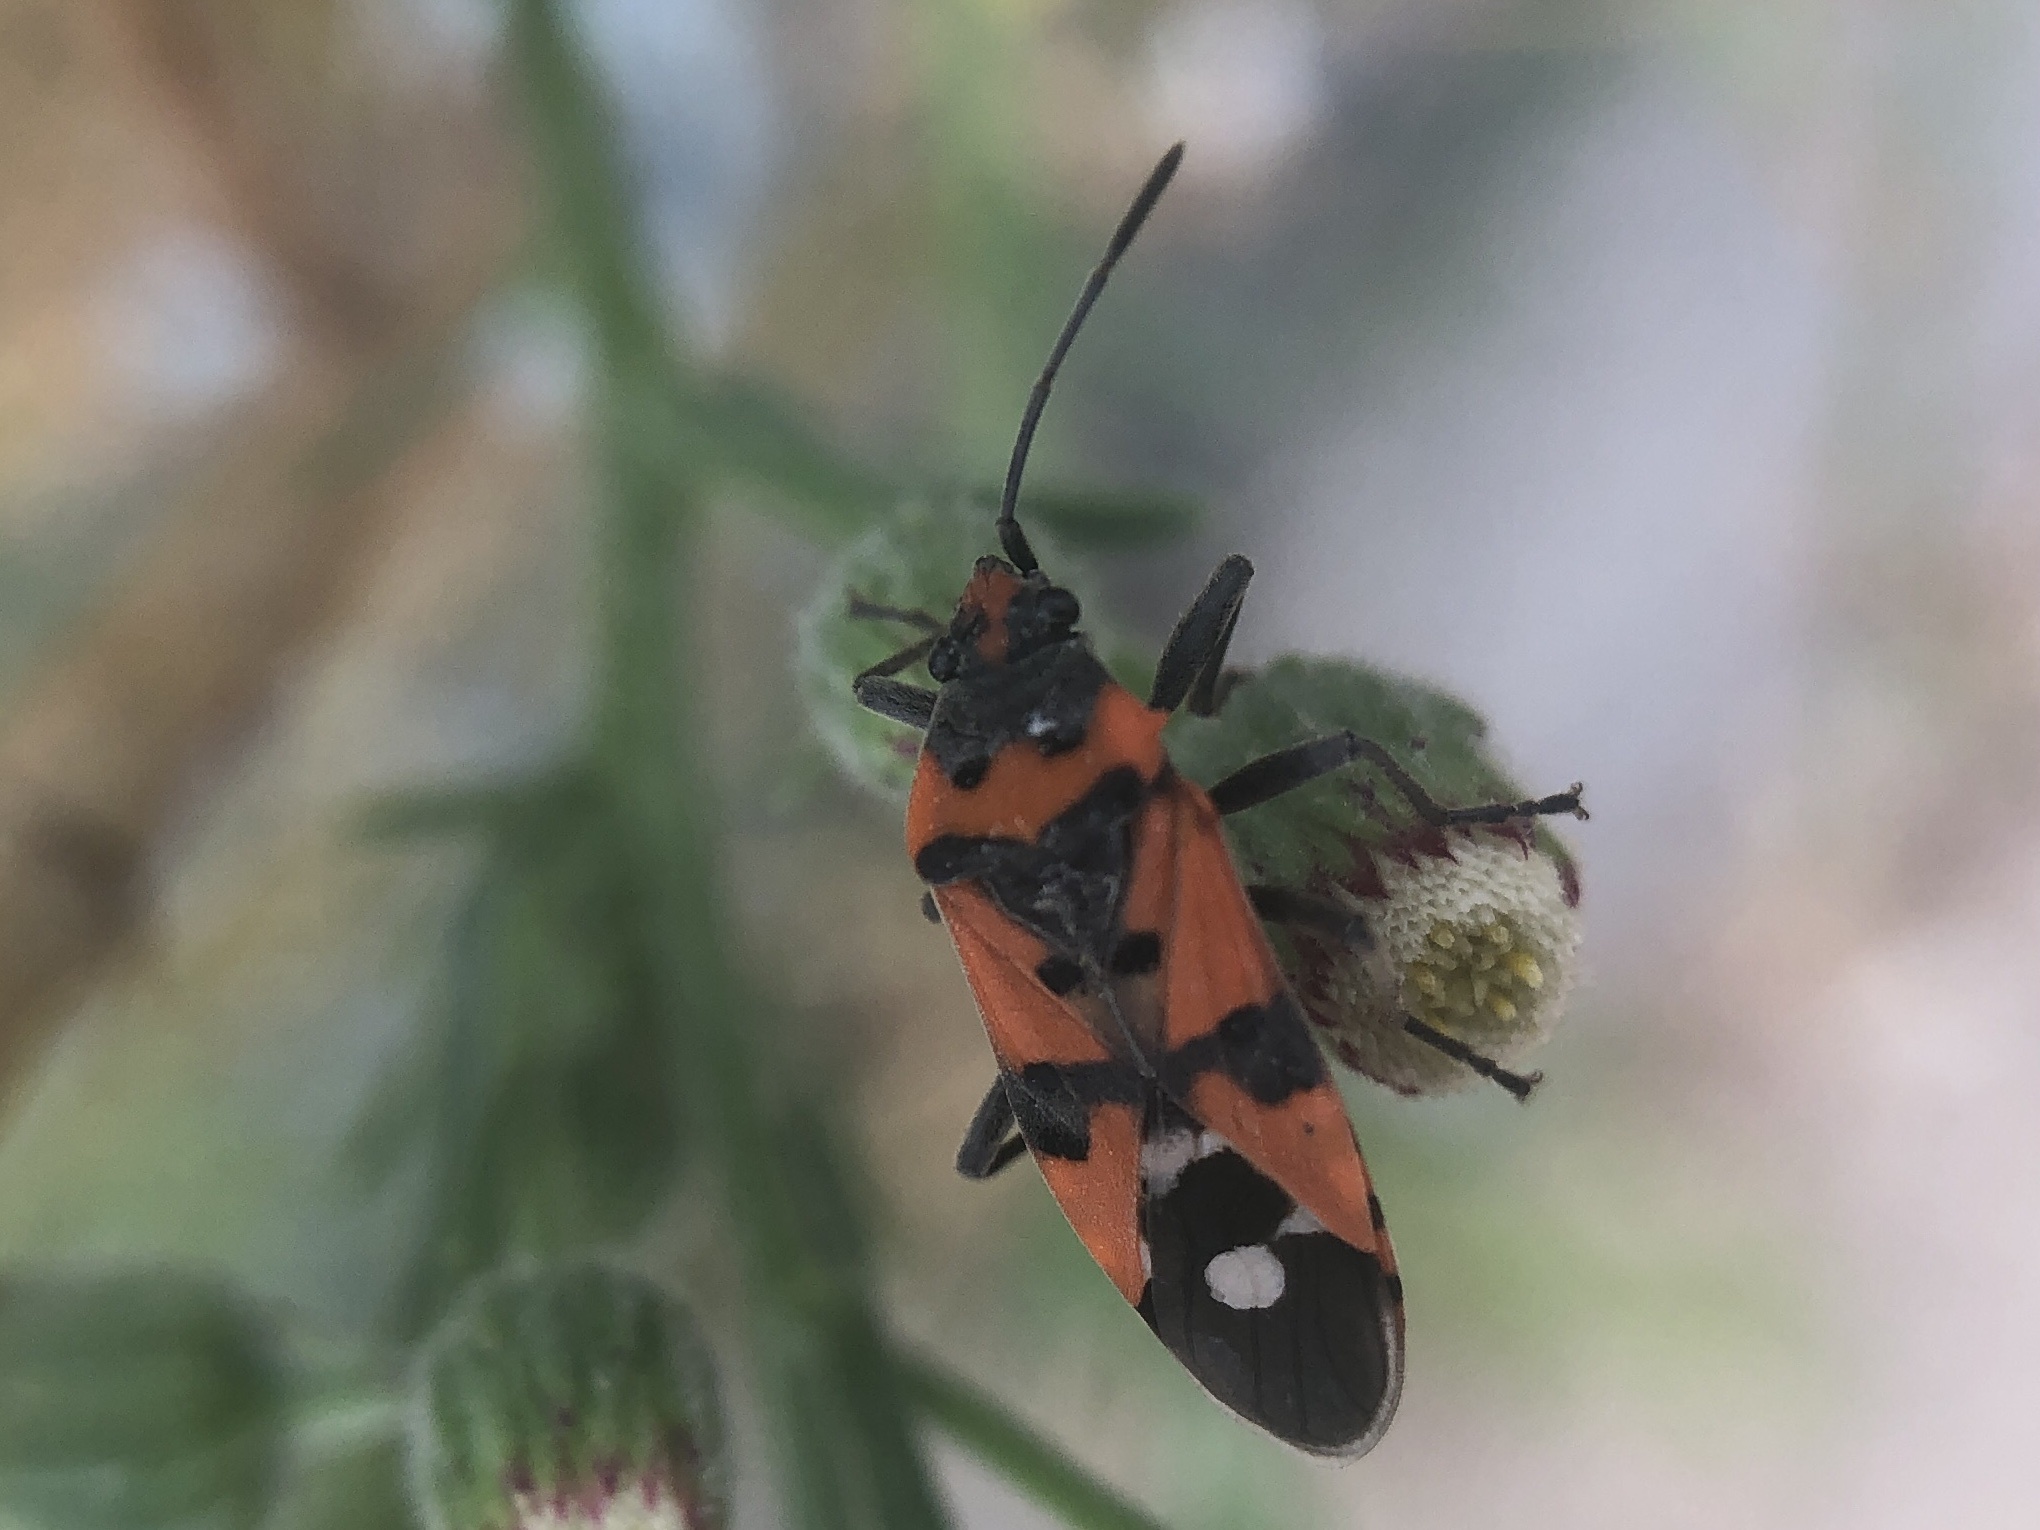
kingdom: Animalia
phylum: Arthropoda
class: Insecta
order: Hemiptera
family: Lygaeidae
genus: Lygaeus
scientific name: Lygaeus equestris
